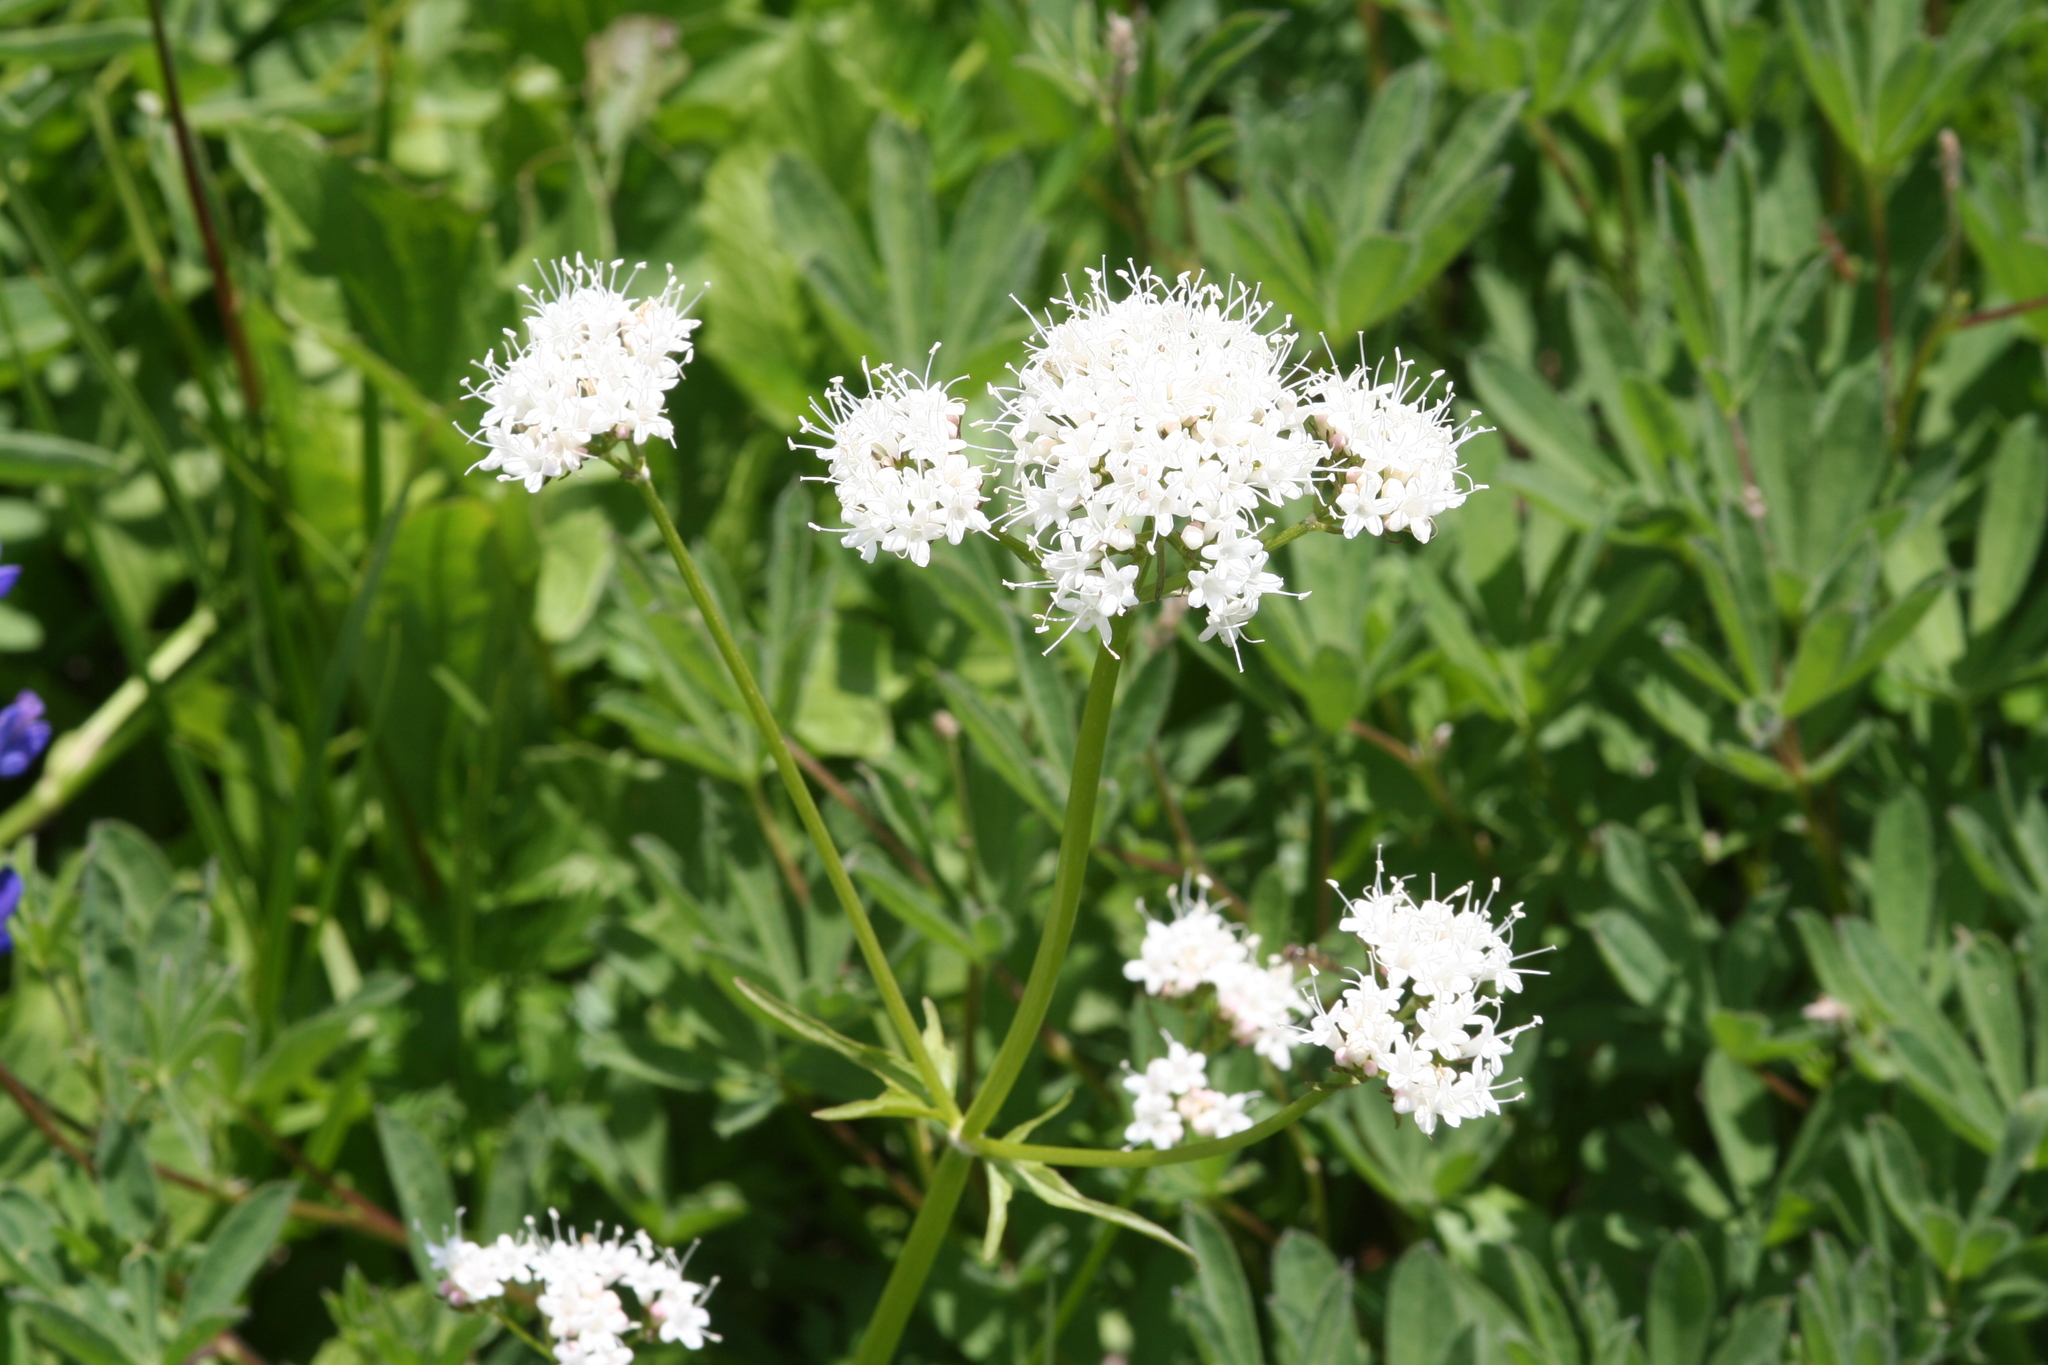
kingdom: Plantae
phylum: Tracheophyta
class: Magnoliopsida
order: Dipsacales
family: Caprifoliaceae
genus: Valeriana
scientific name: Valeriana sitchensis
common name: Pacific valerian
